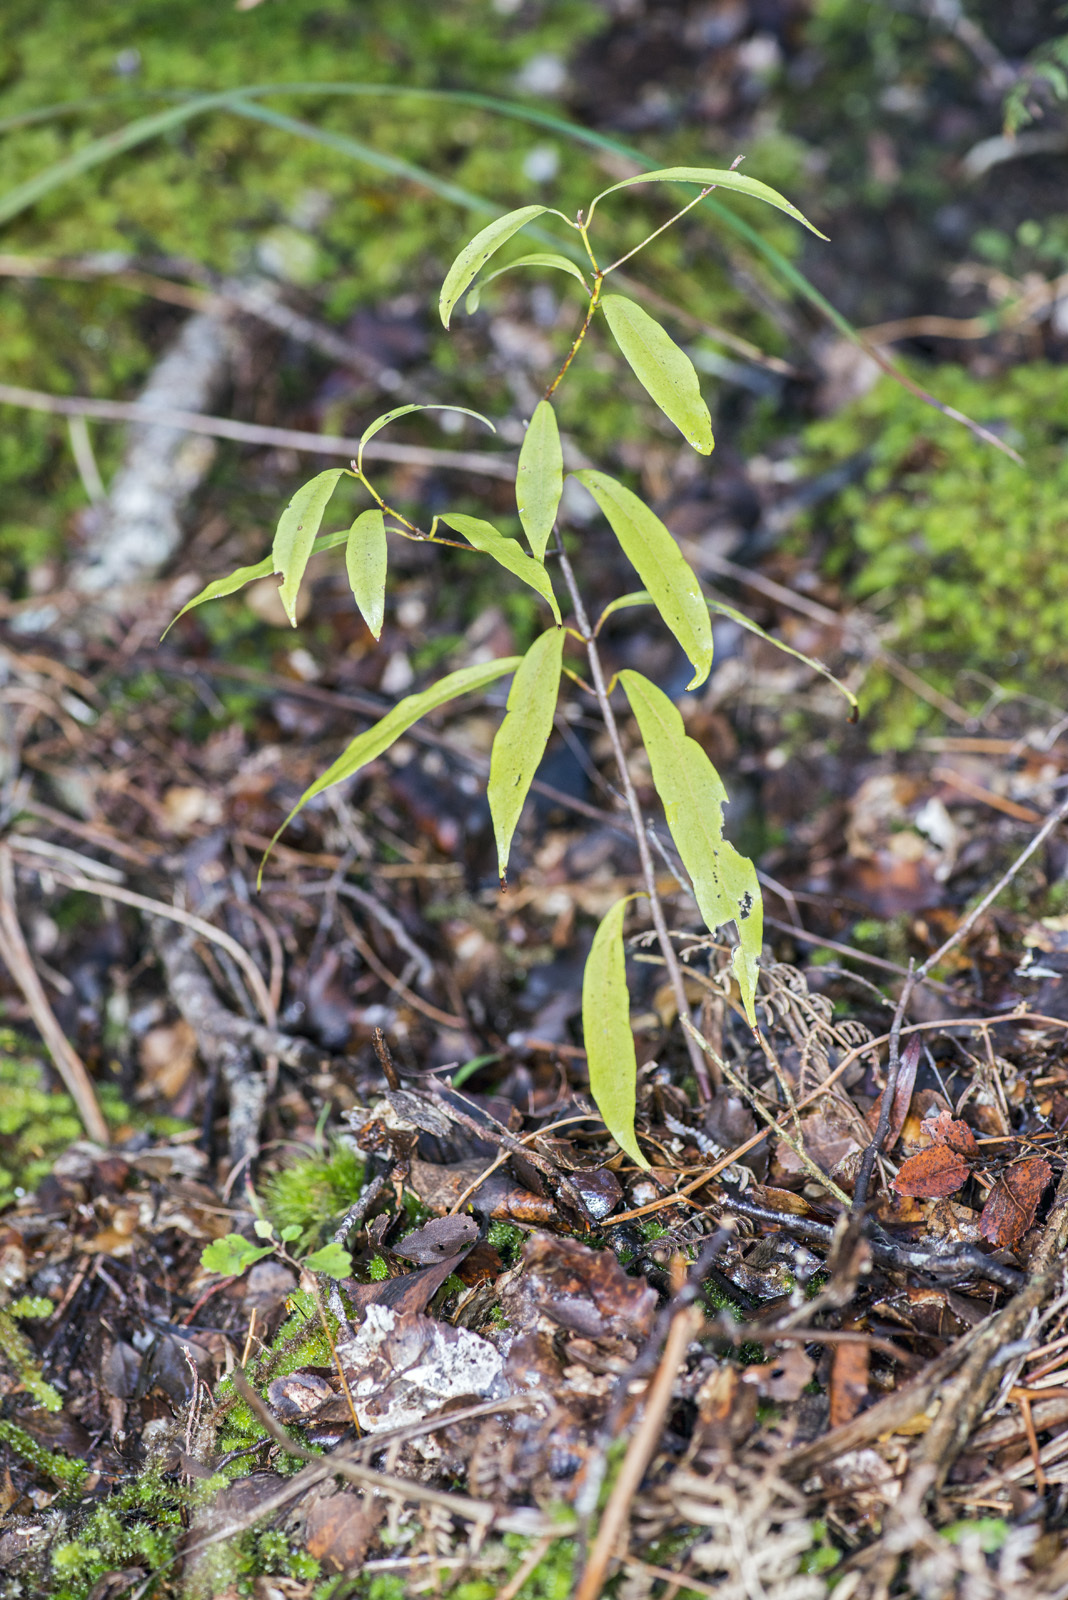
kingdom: Plantae
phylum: Tracheophyta
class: Magnoliopsida
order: Laurales
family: Lauraceae
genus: Beilschmiedia
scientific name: Beilschmiedia tawa
